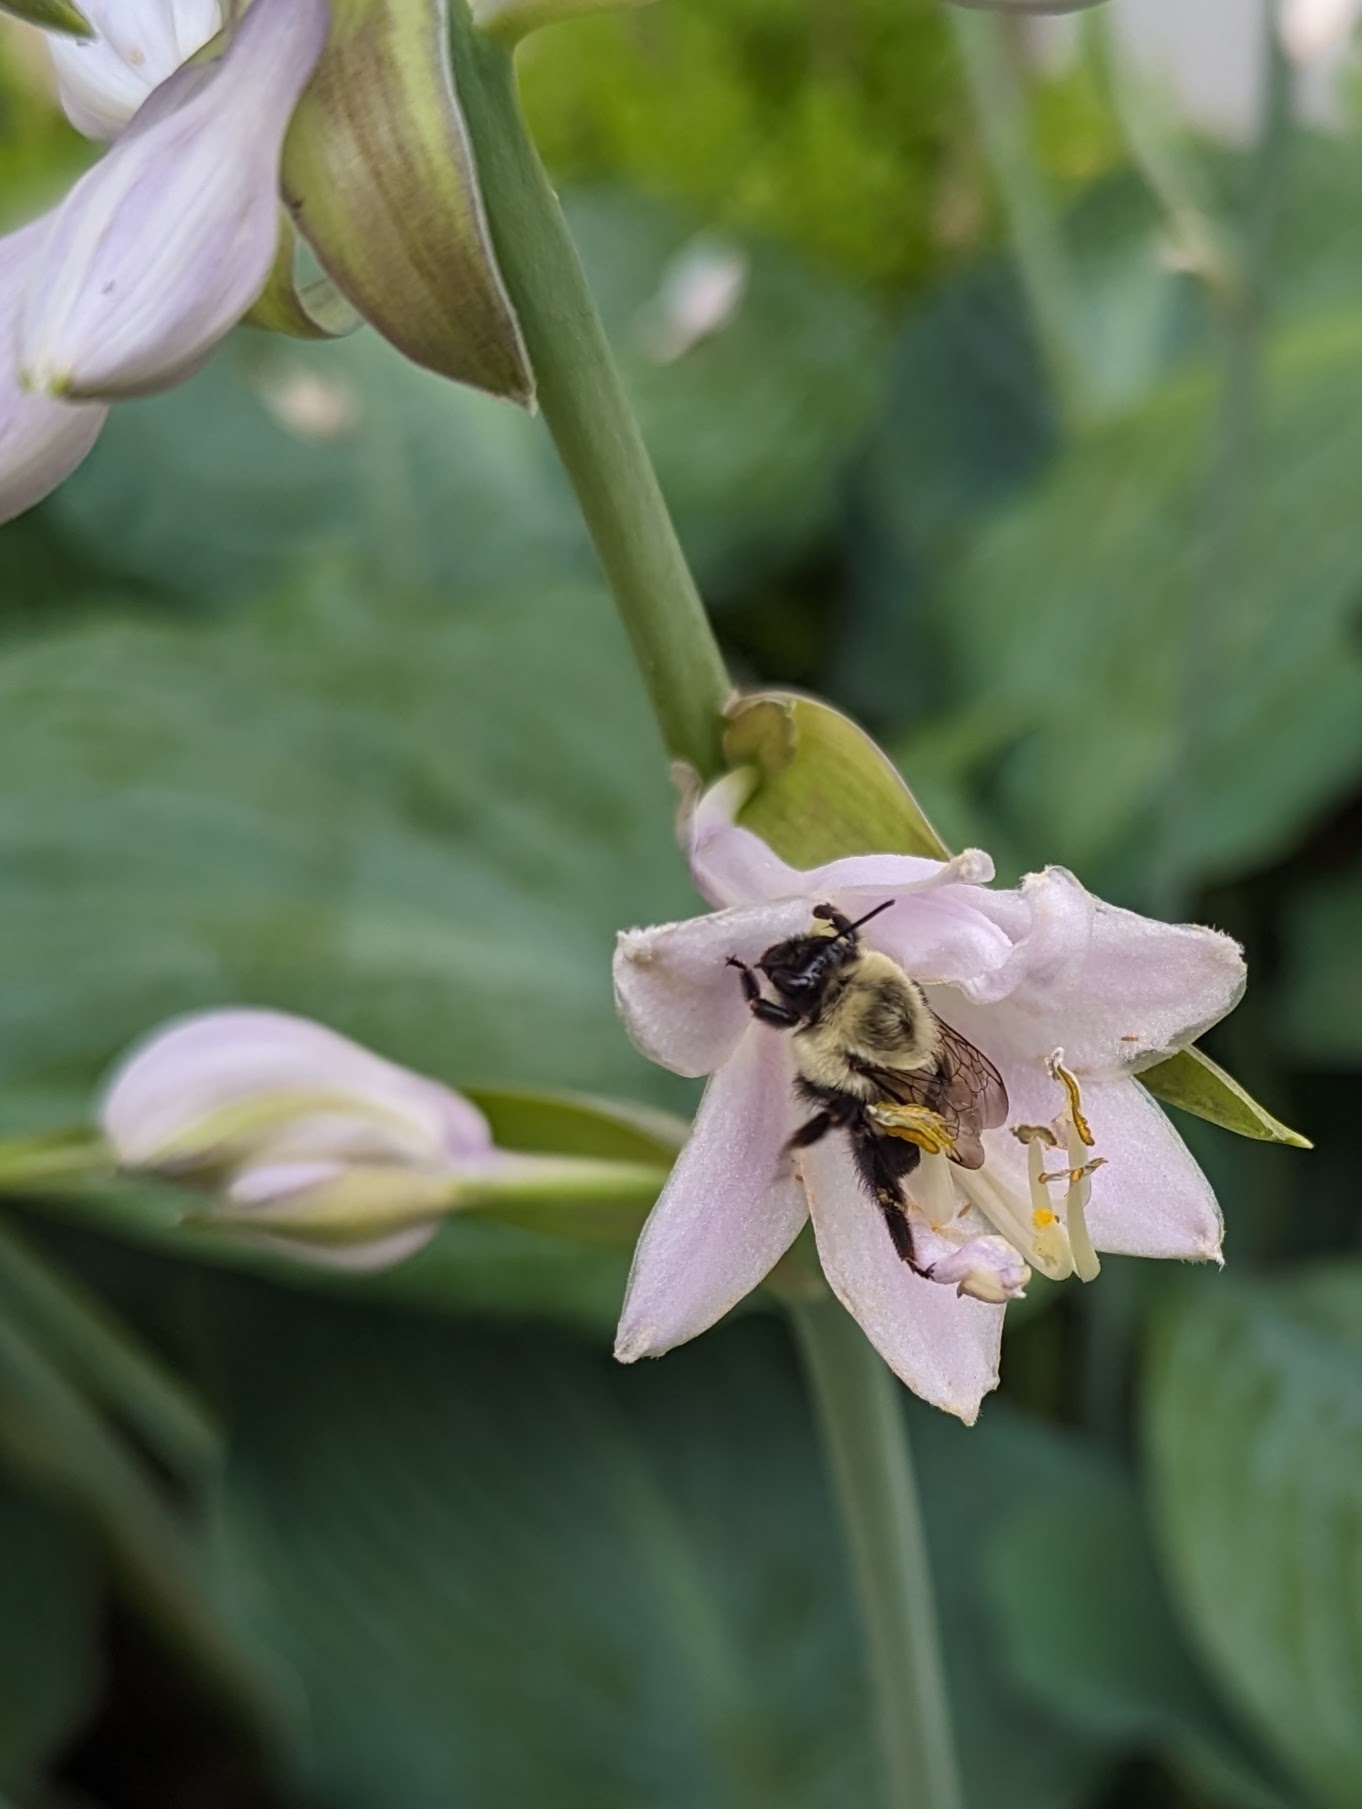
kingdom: Animalia
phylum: Arthropoda
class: Insecta
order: Hymenoptera
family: Apidae
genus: Bombus
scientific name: Bombus impatiens
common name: Common eastern bumble bee
